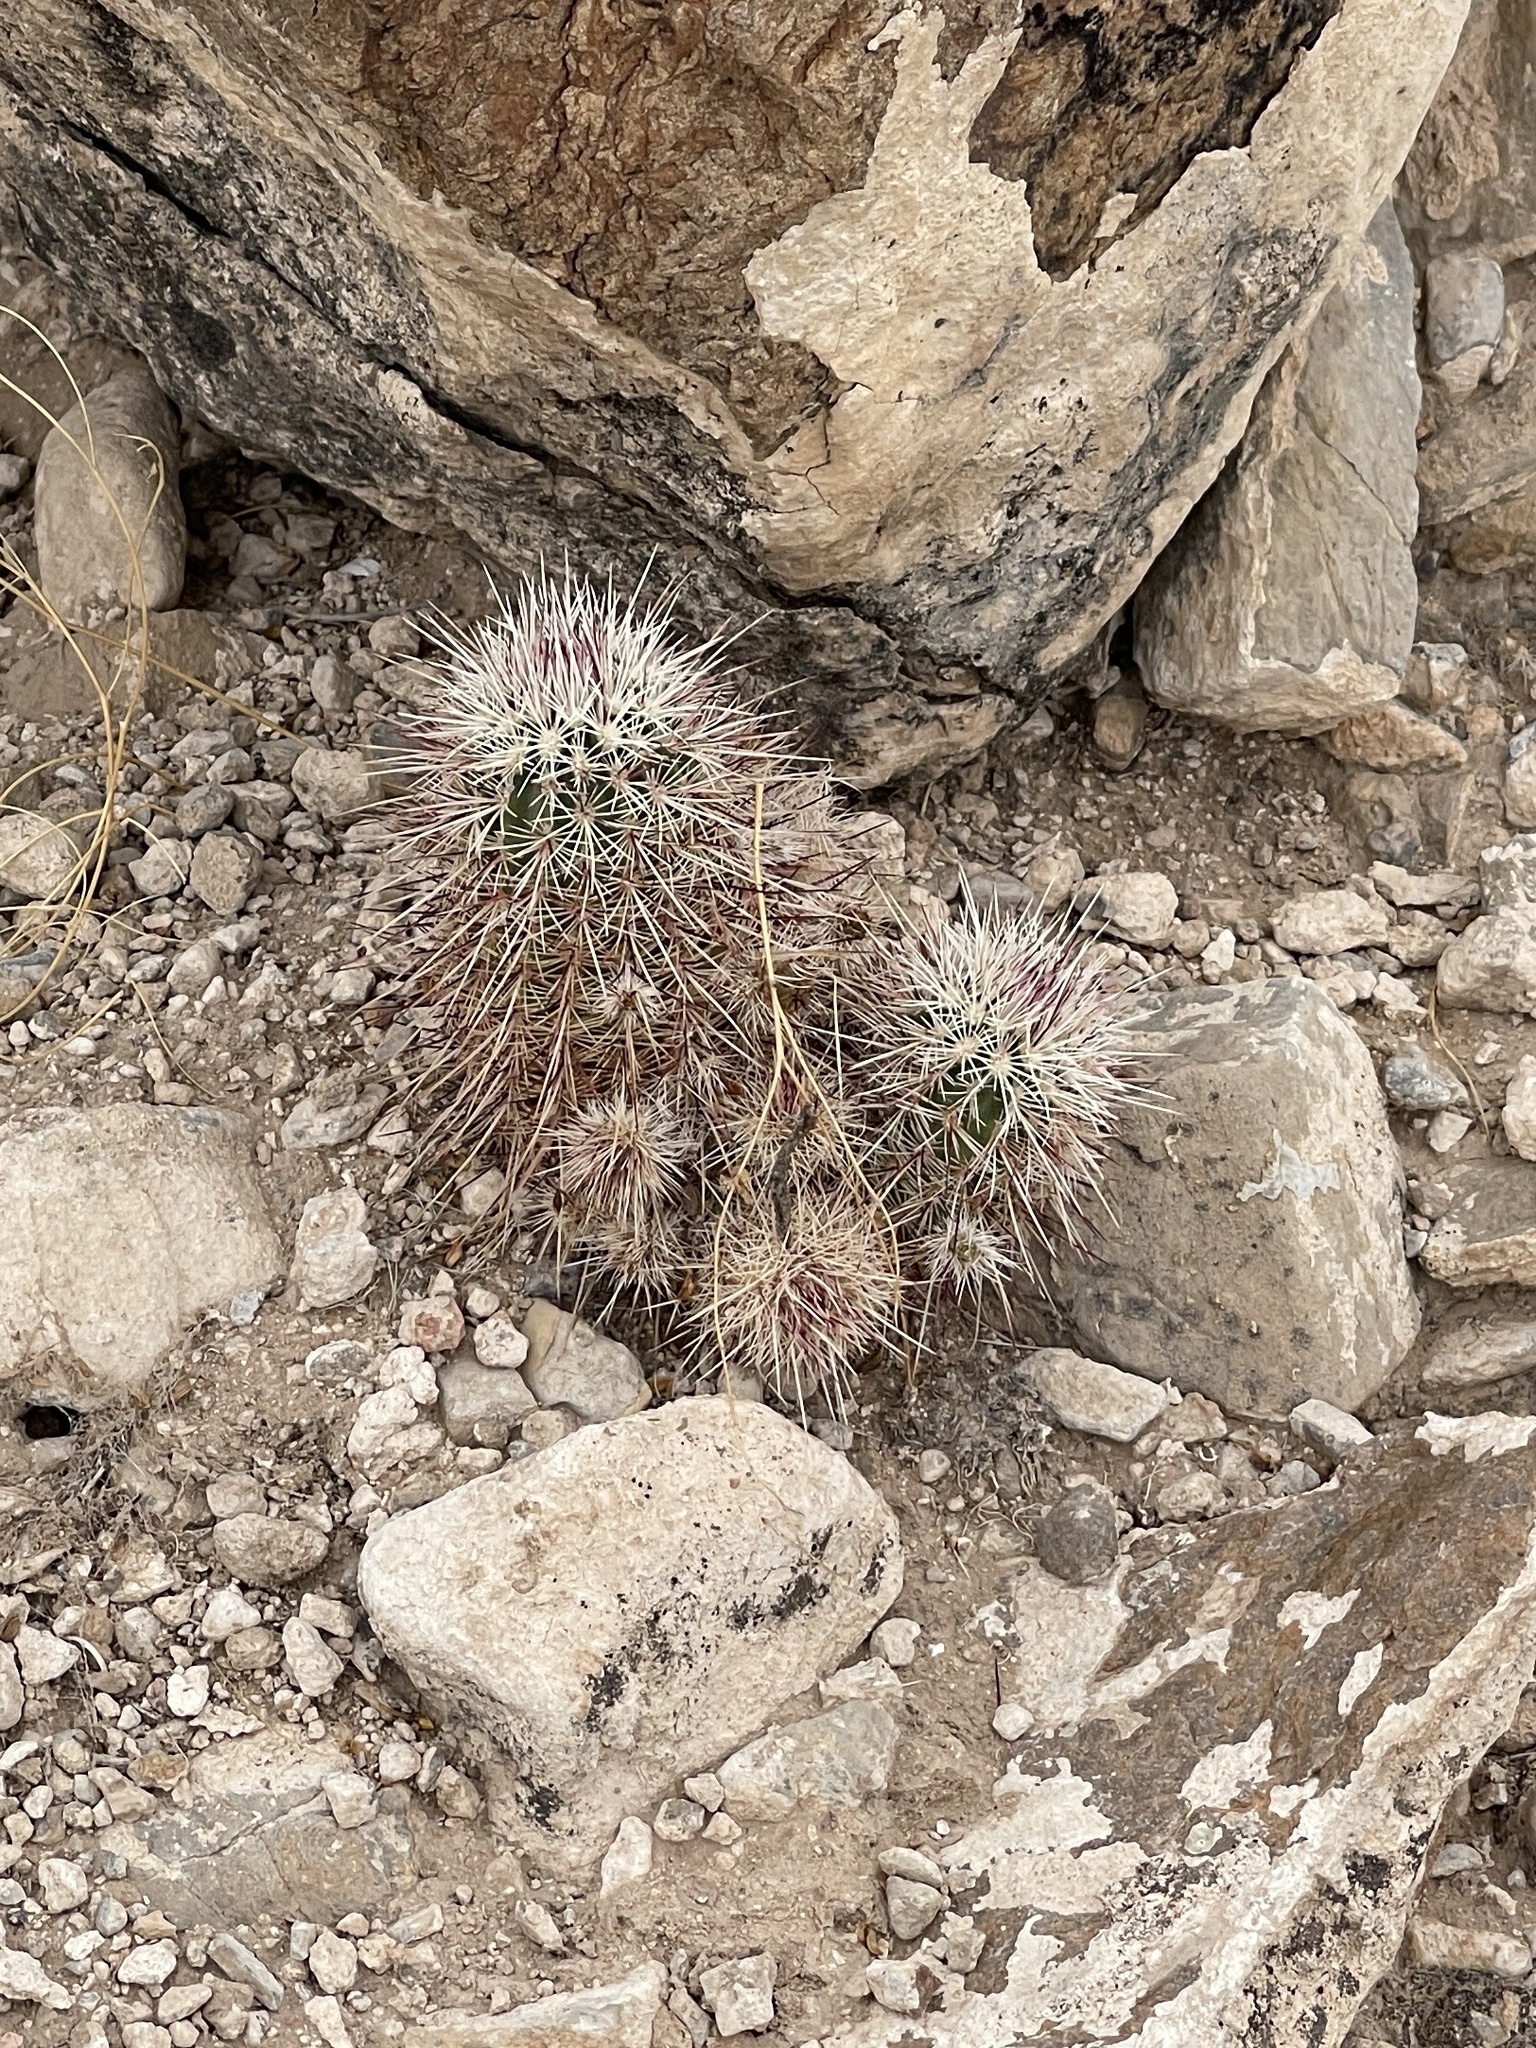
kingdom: Plantae
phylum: Tracheophyta
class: Magnoliopsida
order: Caryophyllales
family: Cactaceae
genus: Echinocereus
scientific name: Echinocereus viridiflorus
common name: Nylon hedgehog cactus
